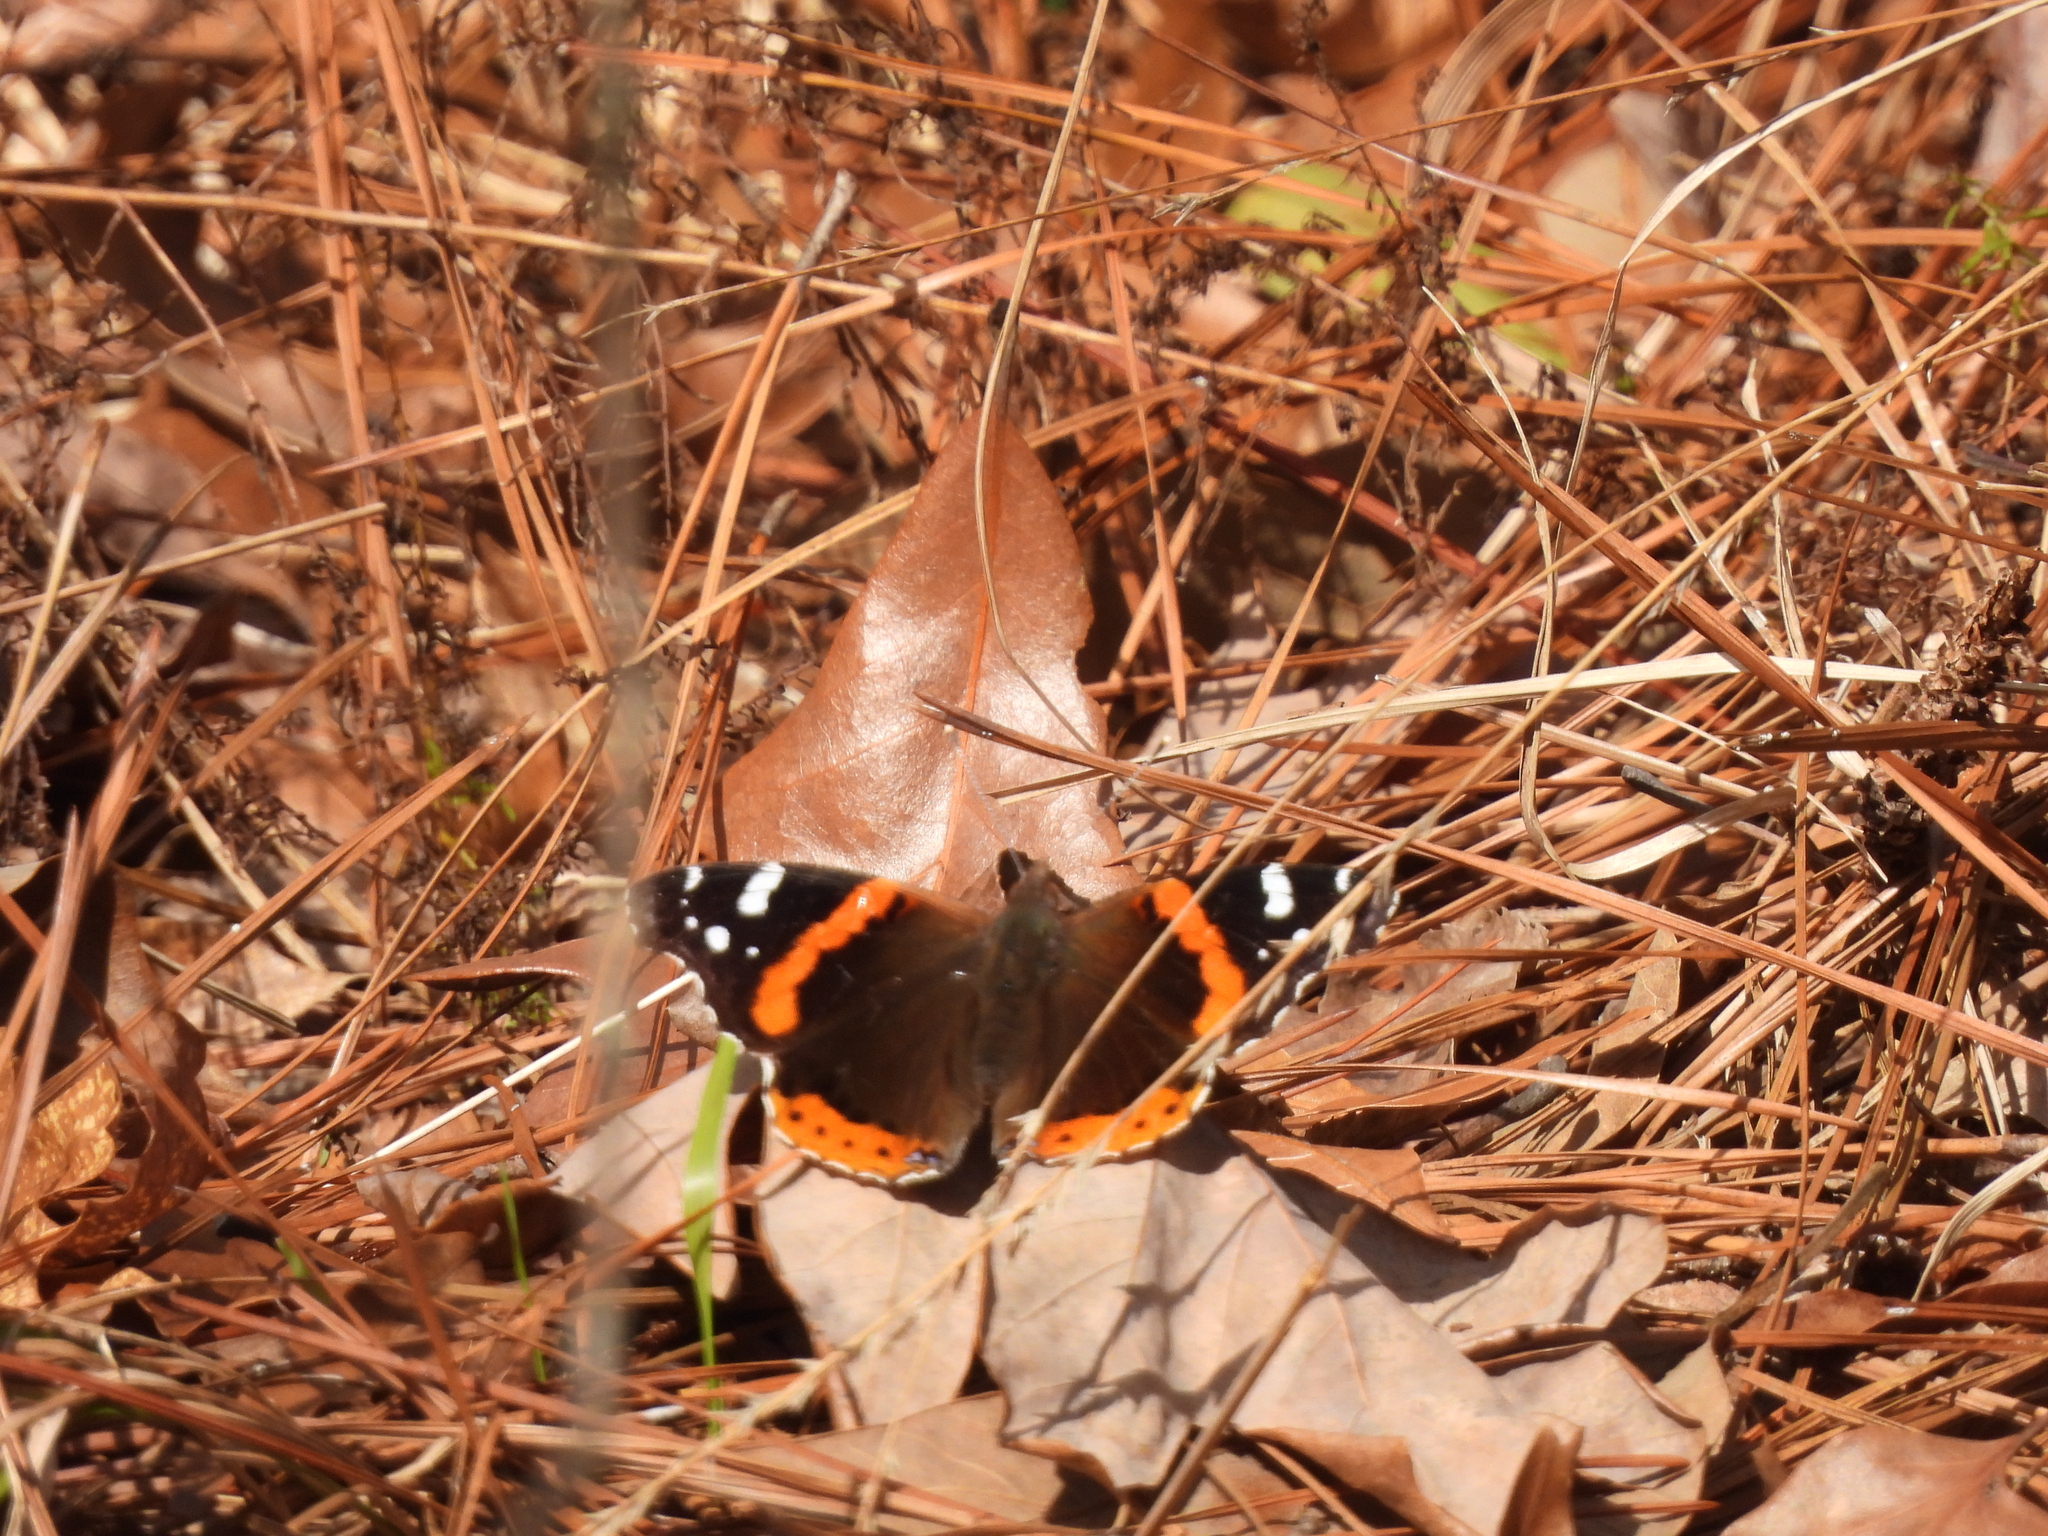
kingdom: Animalia
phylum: Arthropoda
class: Insecta
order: Lepidoptera
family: Nymphalidae
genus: Vanessa
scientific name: Vanessa atalanta
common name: Red admiral
